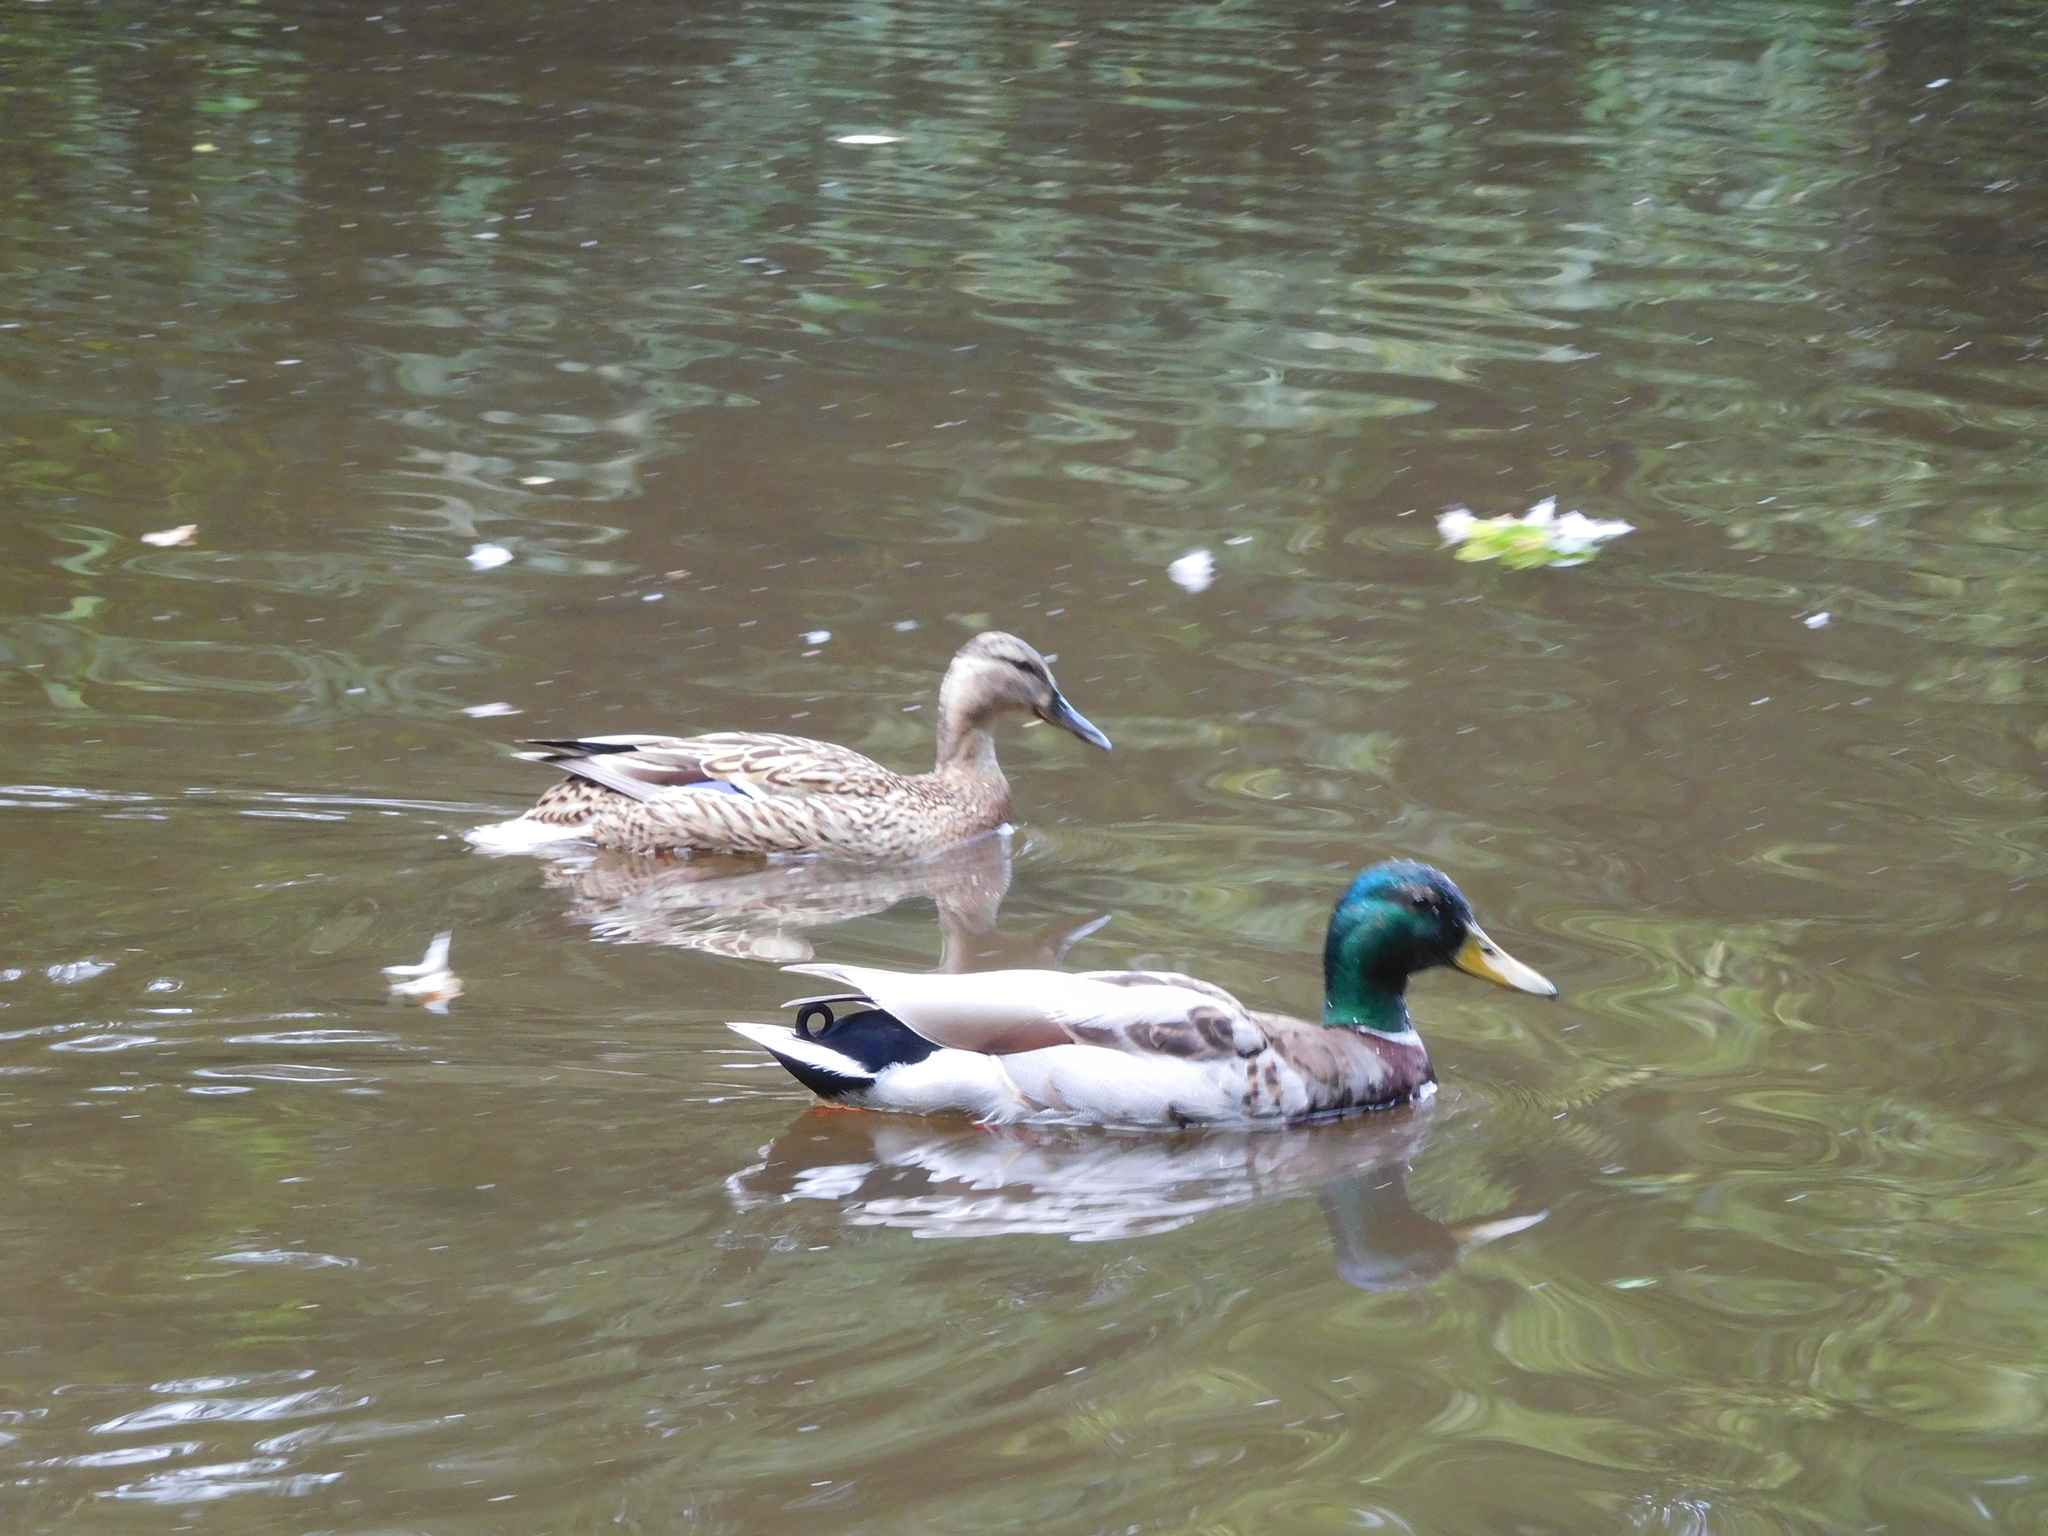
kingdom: Animalia
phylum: Chordata
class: Aves
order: Anseriformes
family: Anatidae
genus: Anas
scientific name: Anas platyrhynchos
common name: Mallard
